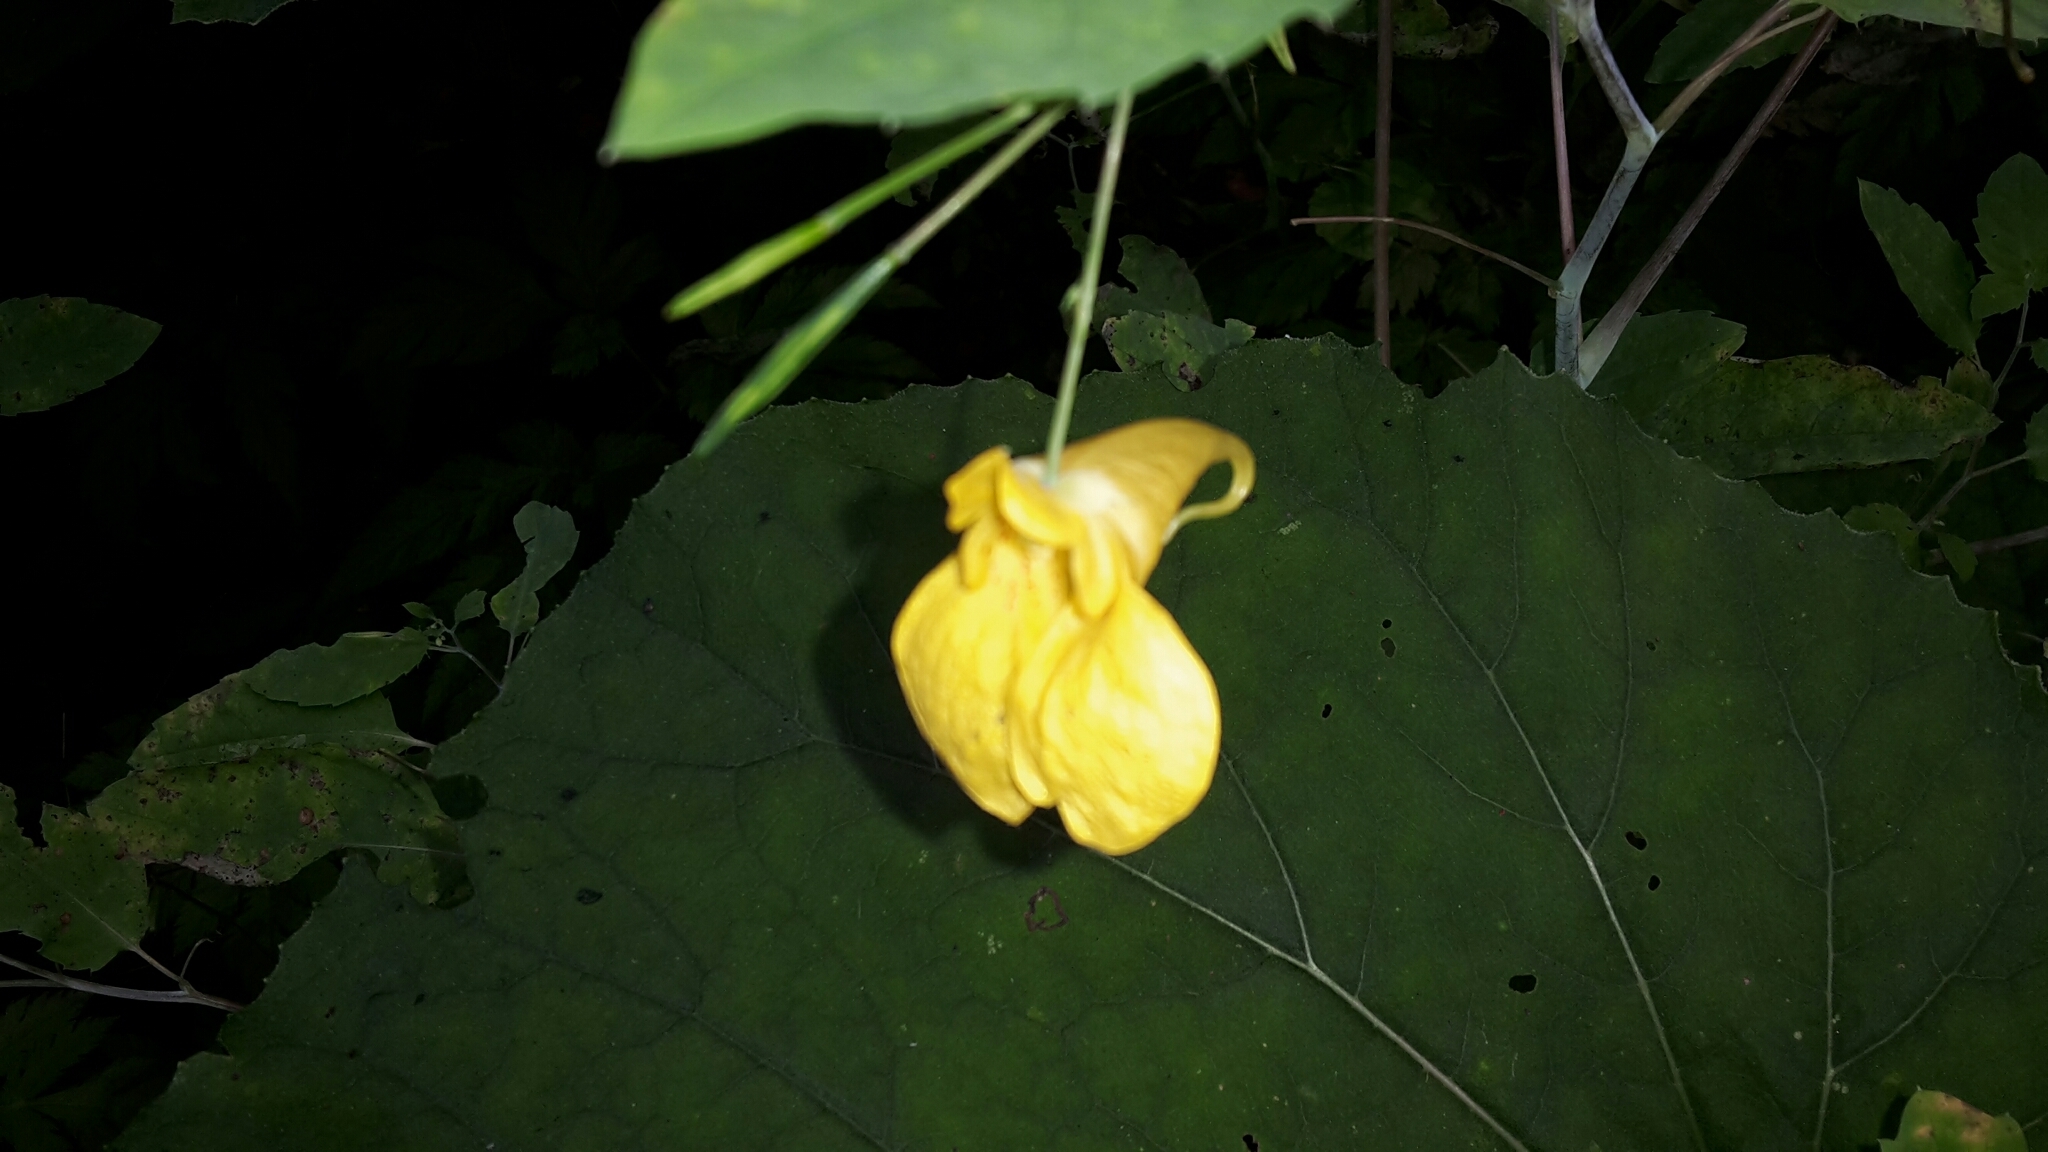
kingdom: Plantae
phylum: Tracheophyta
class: Magnoliopsida
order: Ericales
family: Balsaminaceae
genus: Impatiens
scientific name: Impatiens noli-tangere
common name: Touch-me-not balsam
